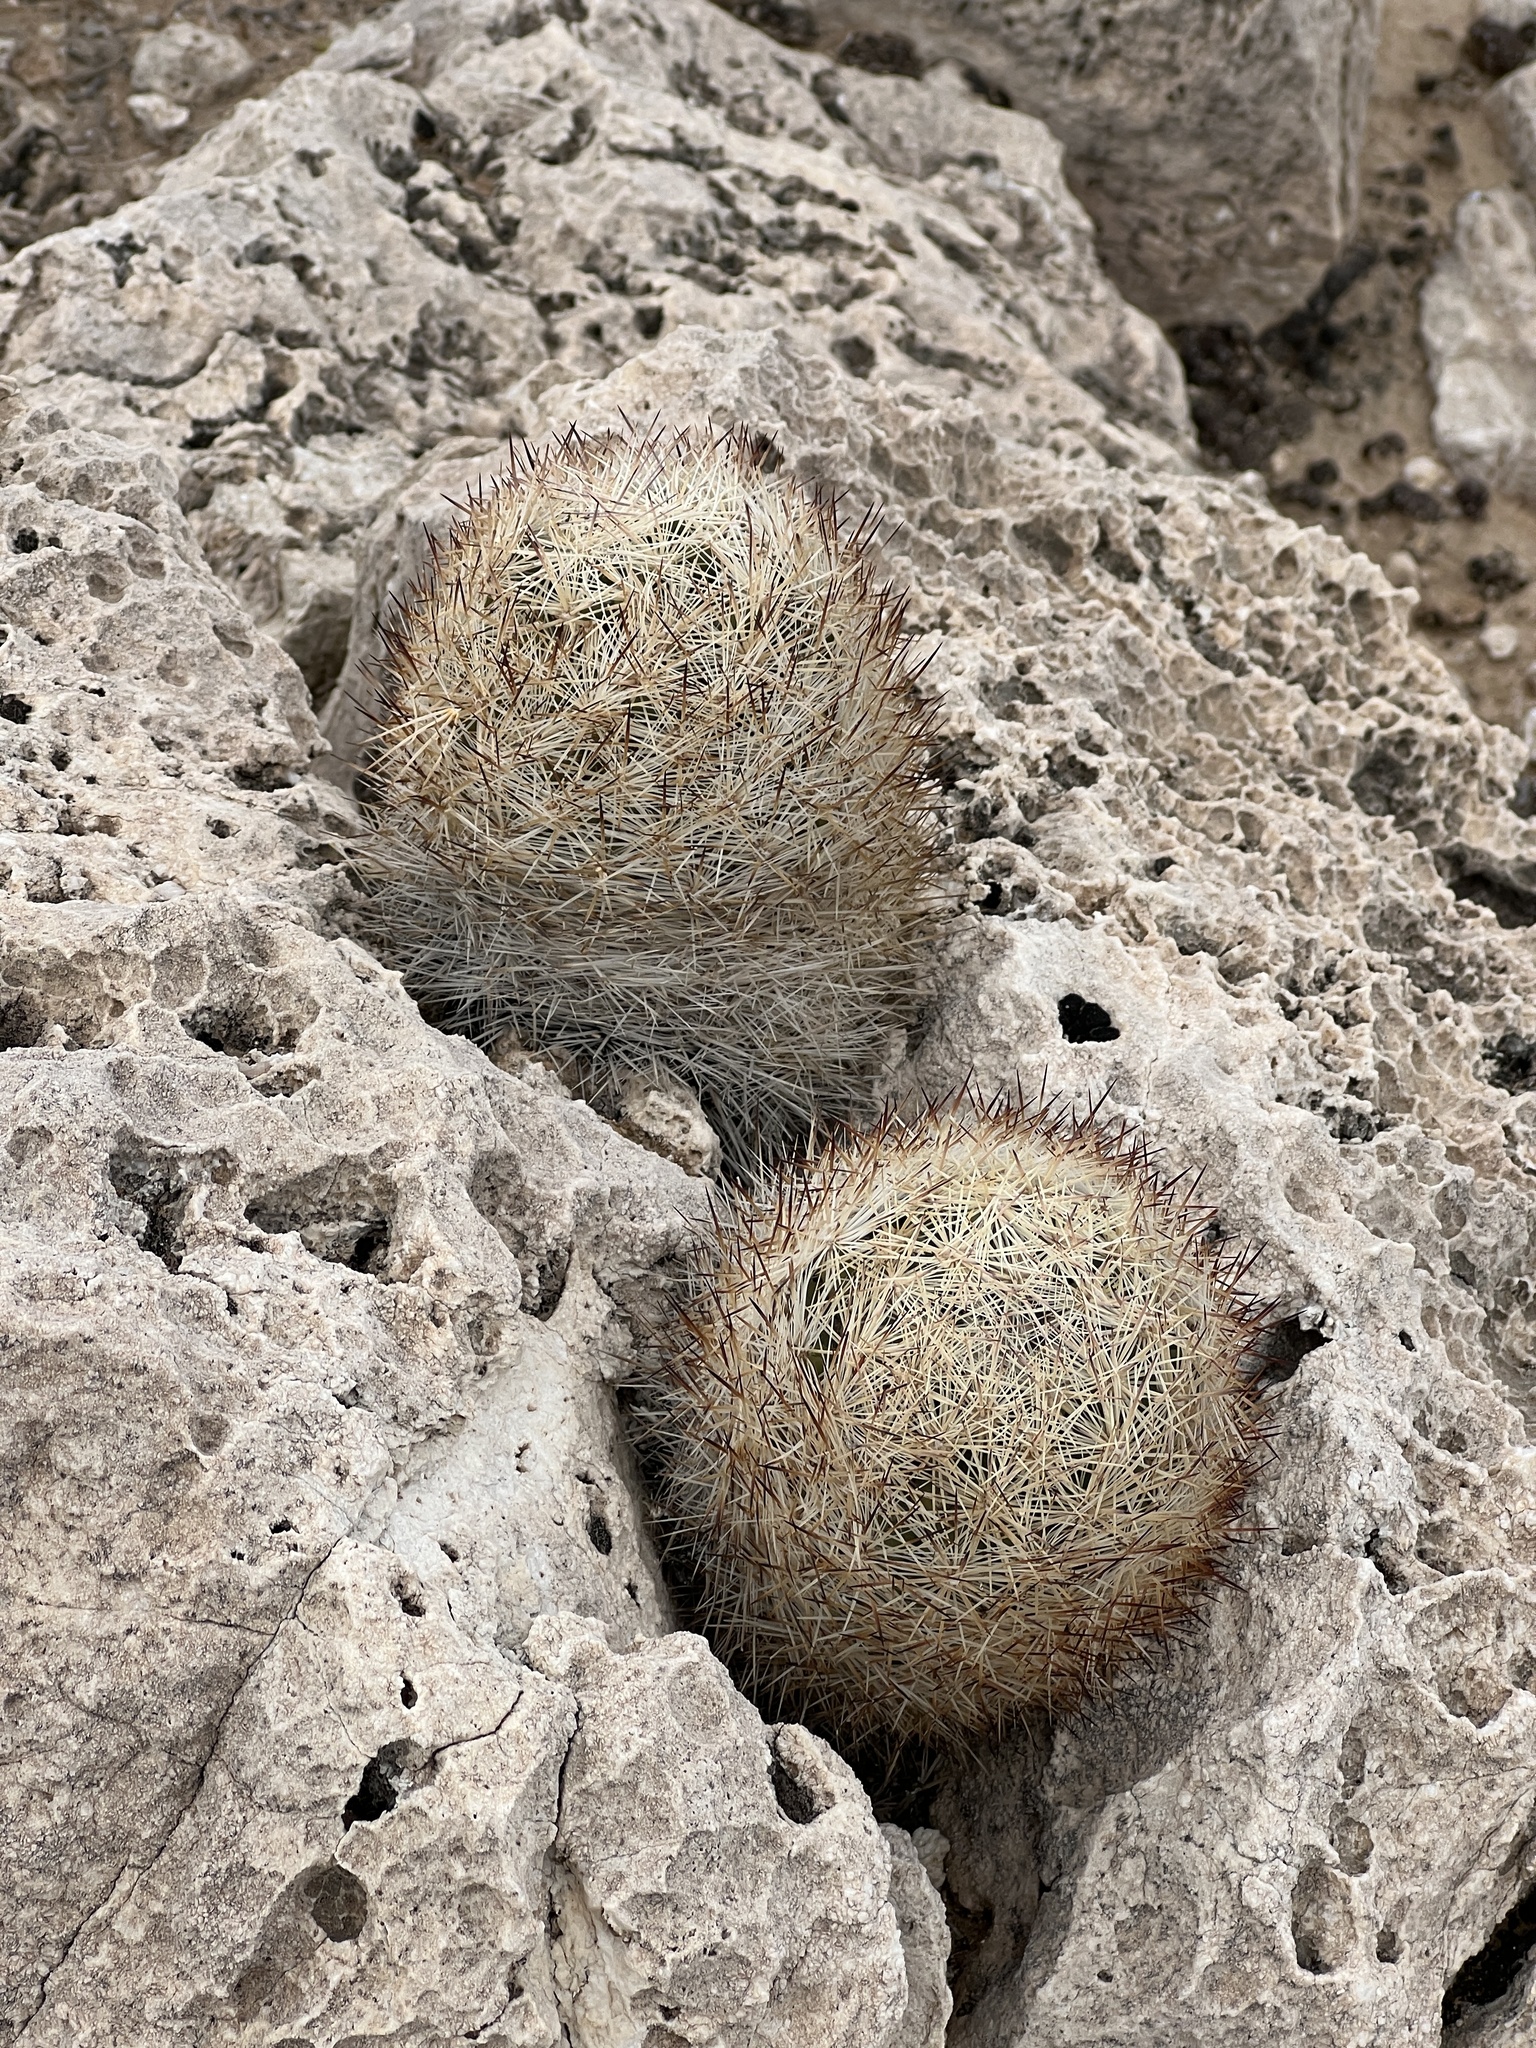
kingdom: Plantae
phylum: Tracheophyta
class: Magnoliopsida
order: Caryophyllales
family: Cactaceae
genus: Pelecyphora
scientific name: Pelecyphora dasyacantha
